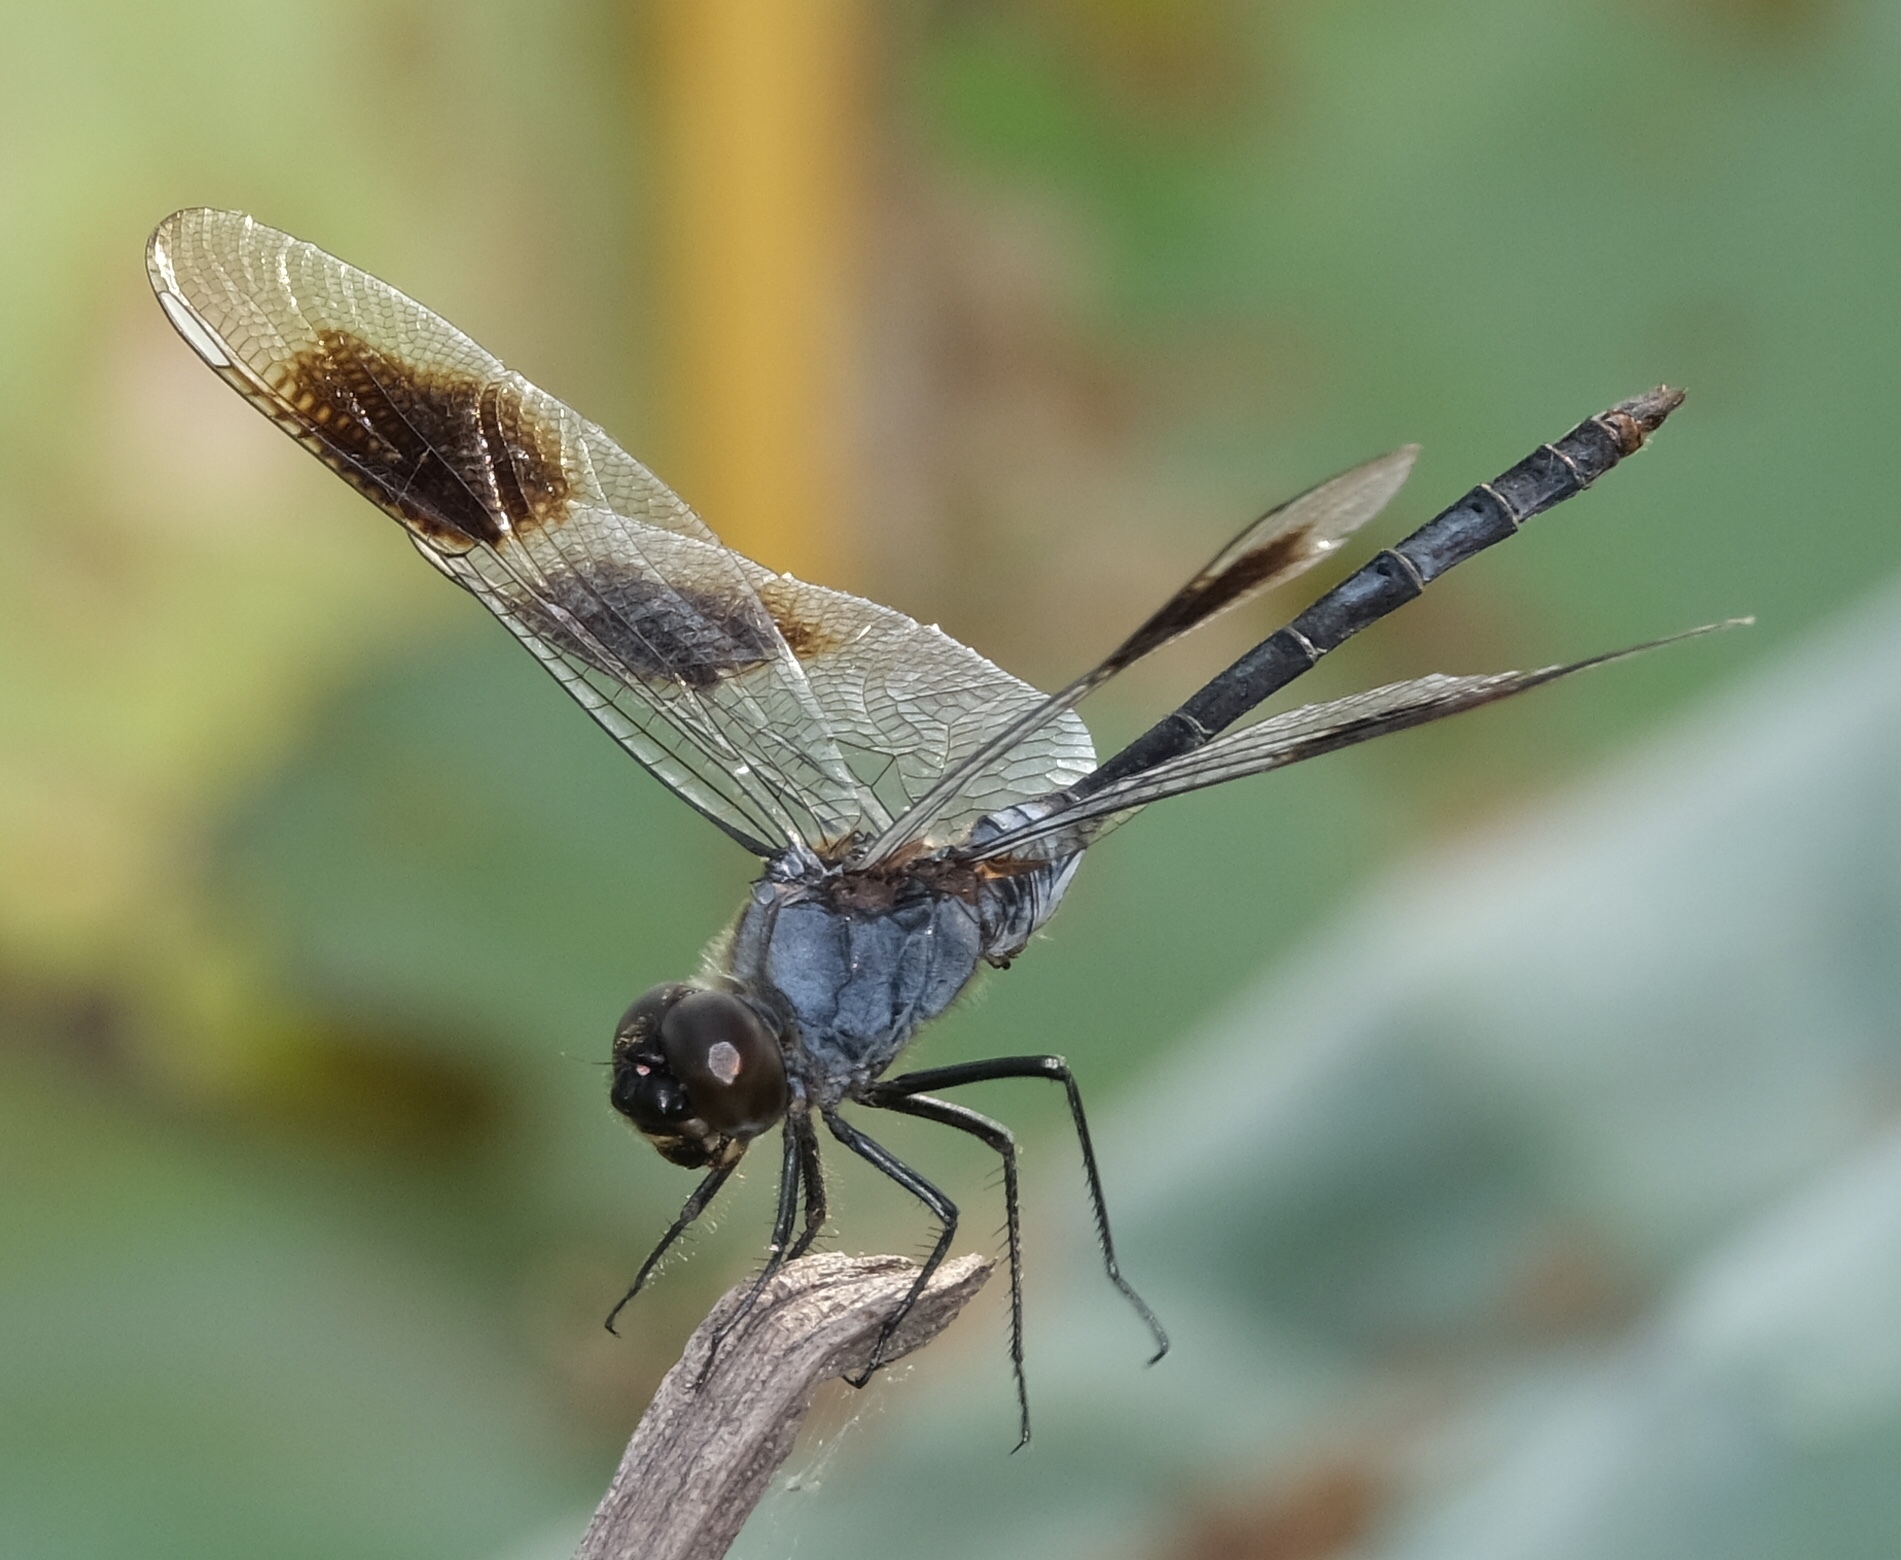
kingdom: Animalia
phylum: Arthropoda
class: Insecta
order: Odonata
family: Libellulidae
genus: Brachymesia
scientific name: Brachymesia gravida
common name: Four-spotted pennant
